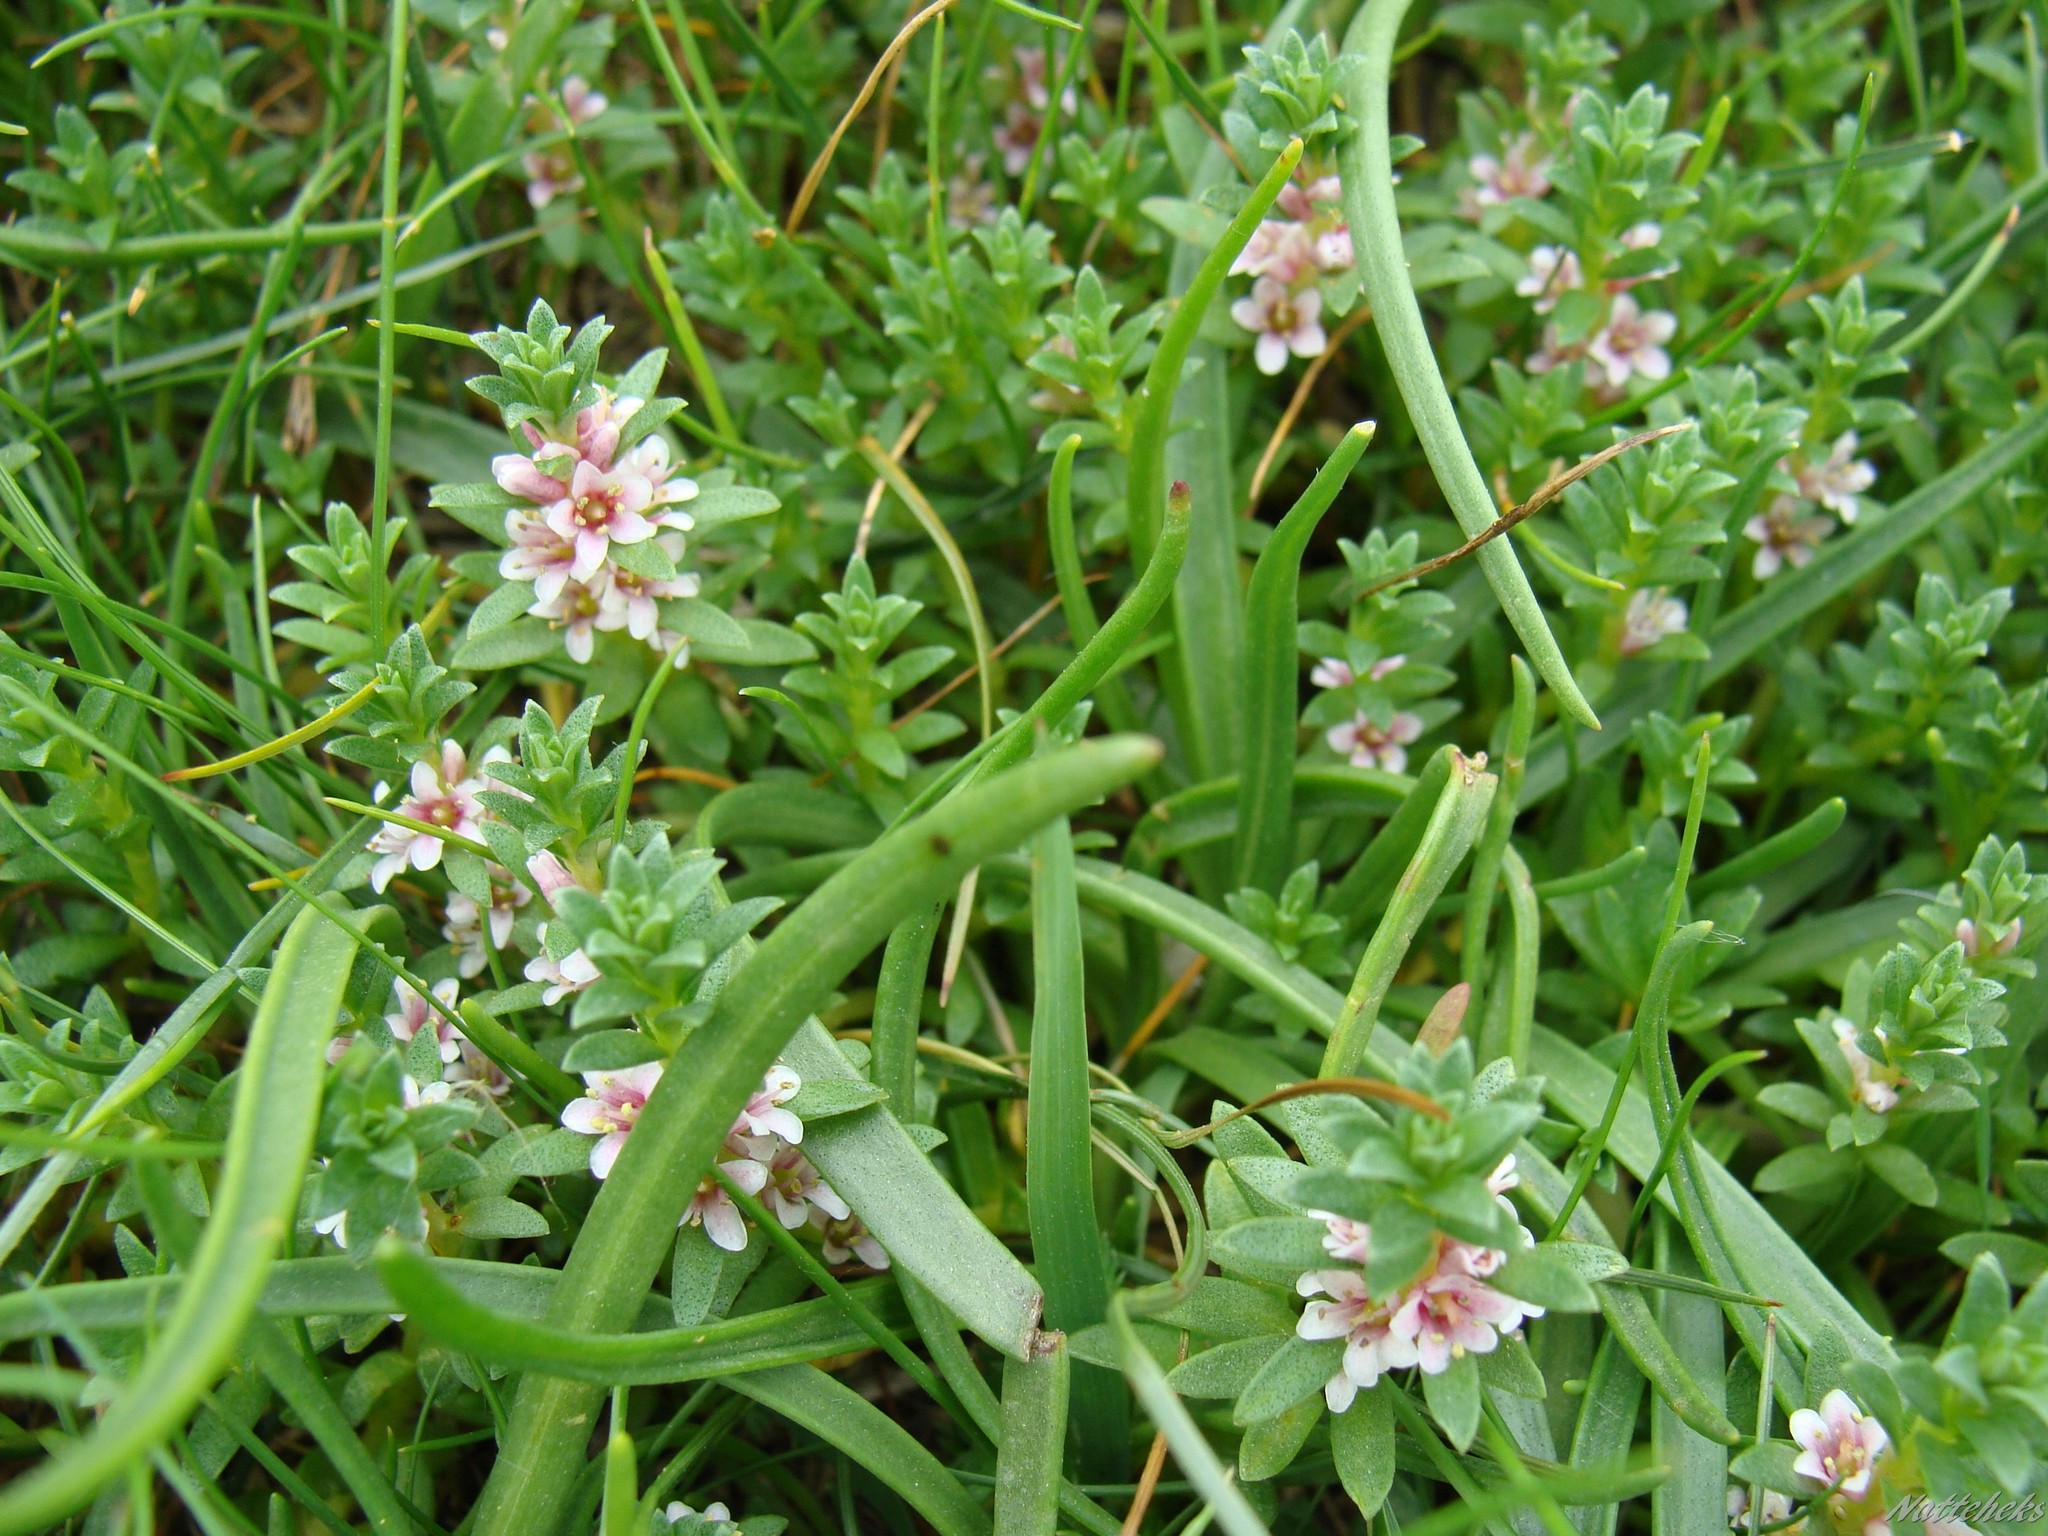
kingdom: Plantae
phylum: Tracheophyta
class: Magnoliopsida
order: Ericales
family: Primulaceae
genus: Lysimachia
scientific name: Lysimachia maritima
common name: Sea milkwort
